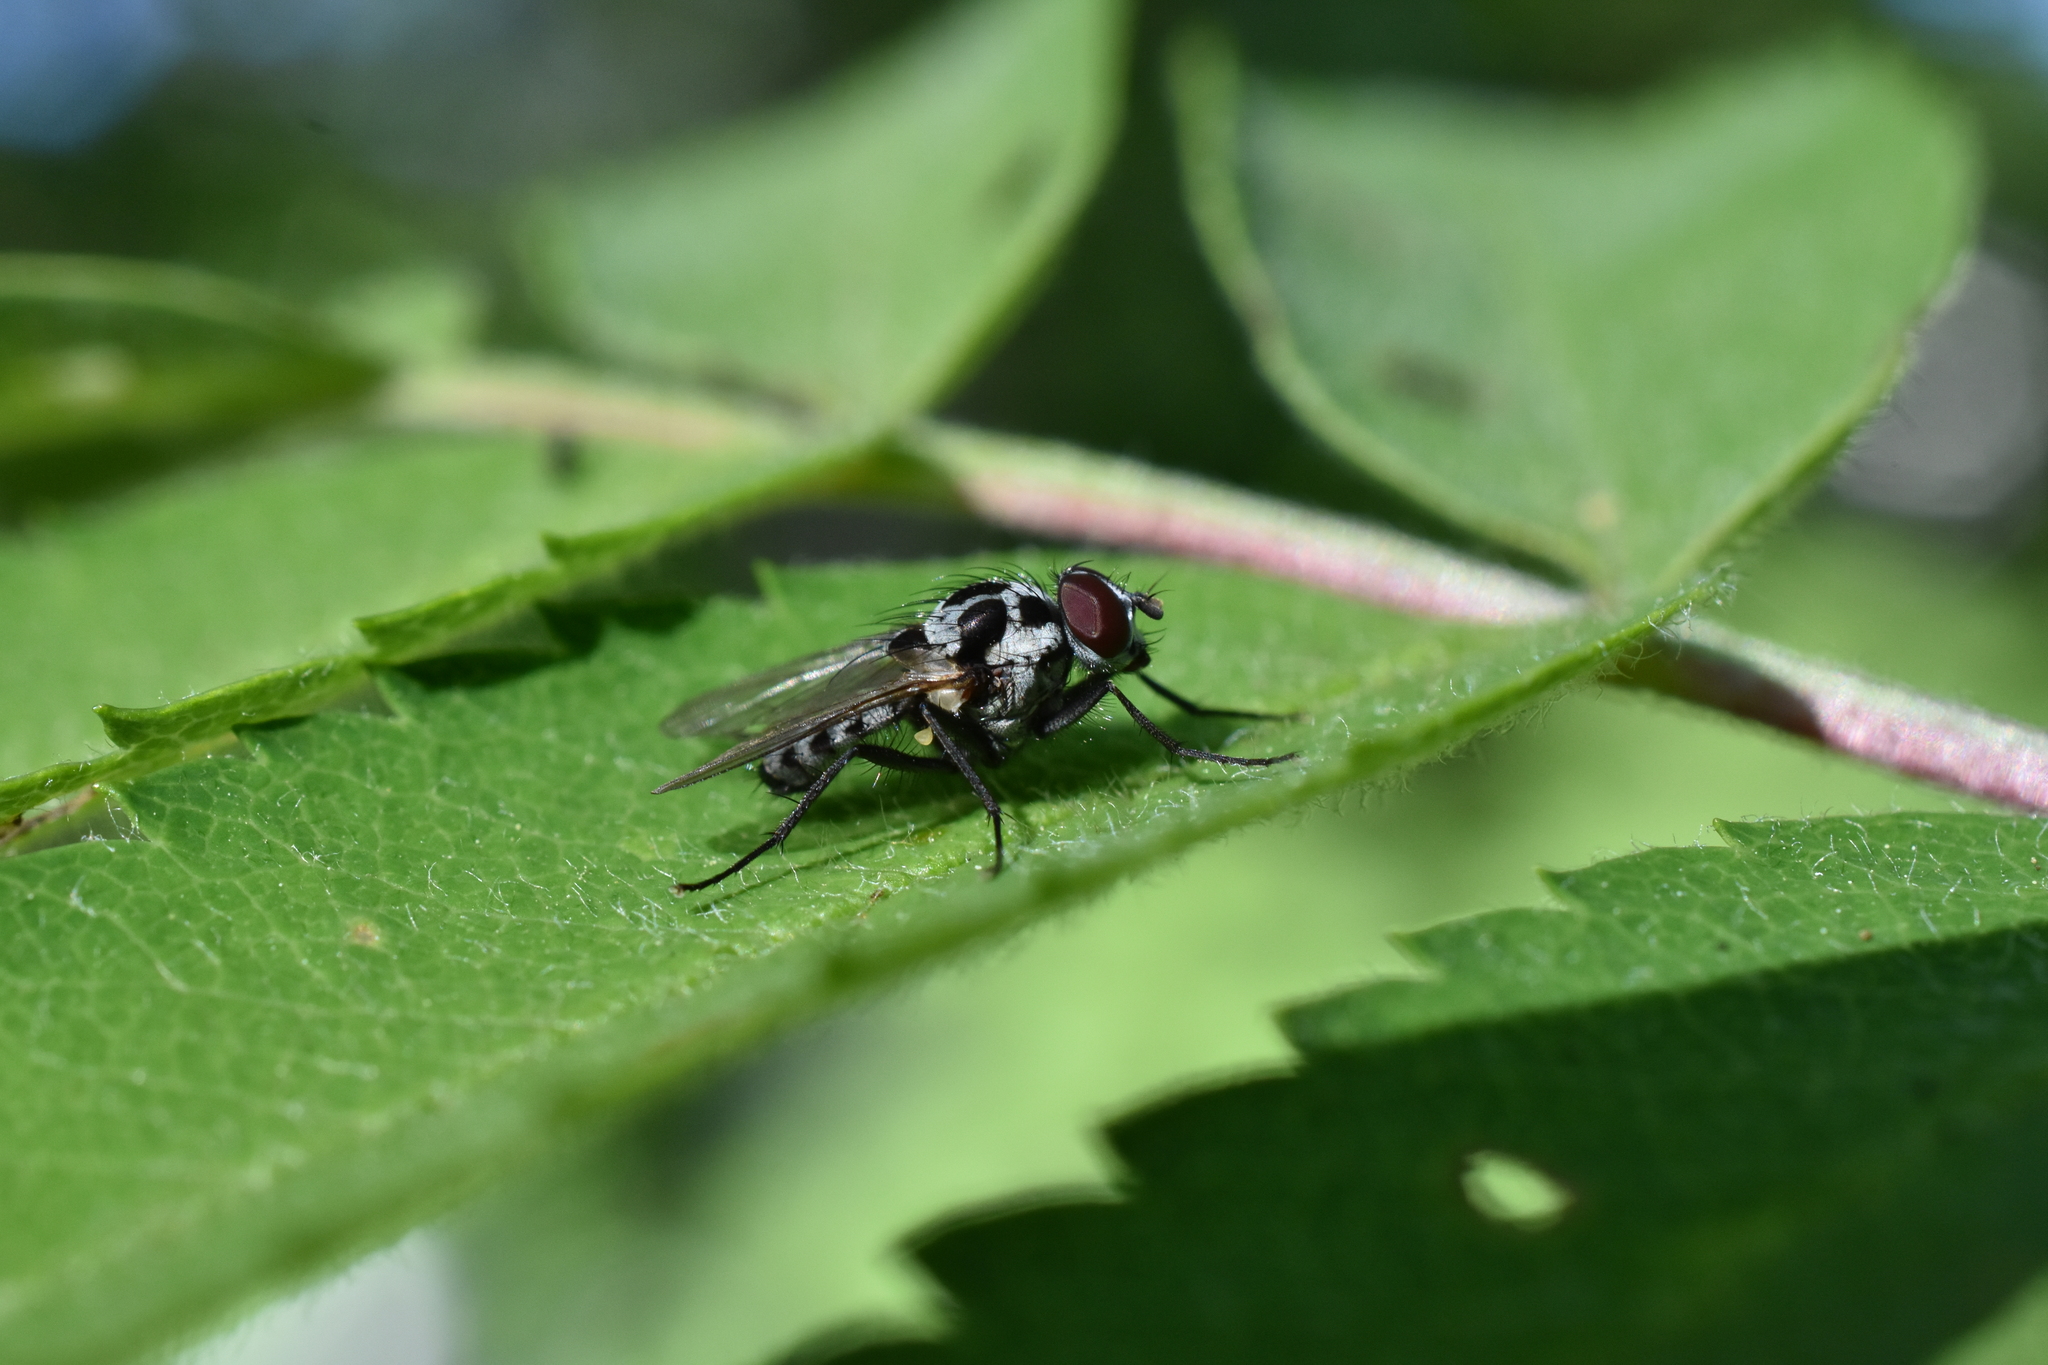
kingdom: Animalia
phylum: Arthropoda
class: Insecta
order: Diptera
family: Anthomyiidae
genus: Anthomyia
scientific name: Anthomyia procellaris
